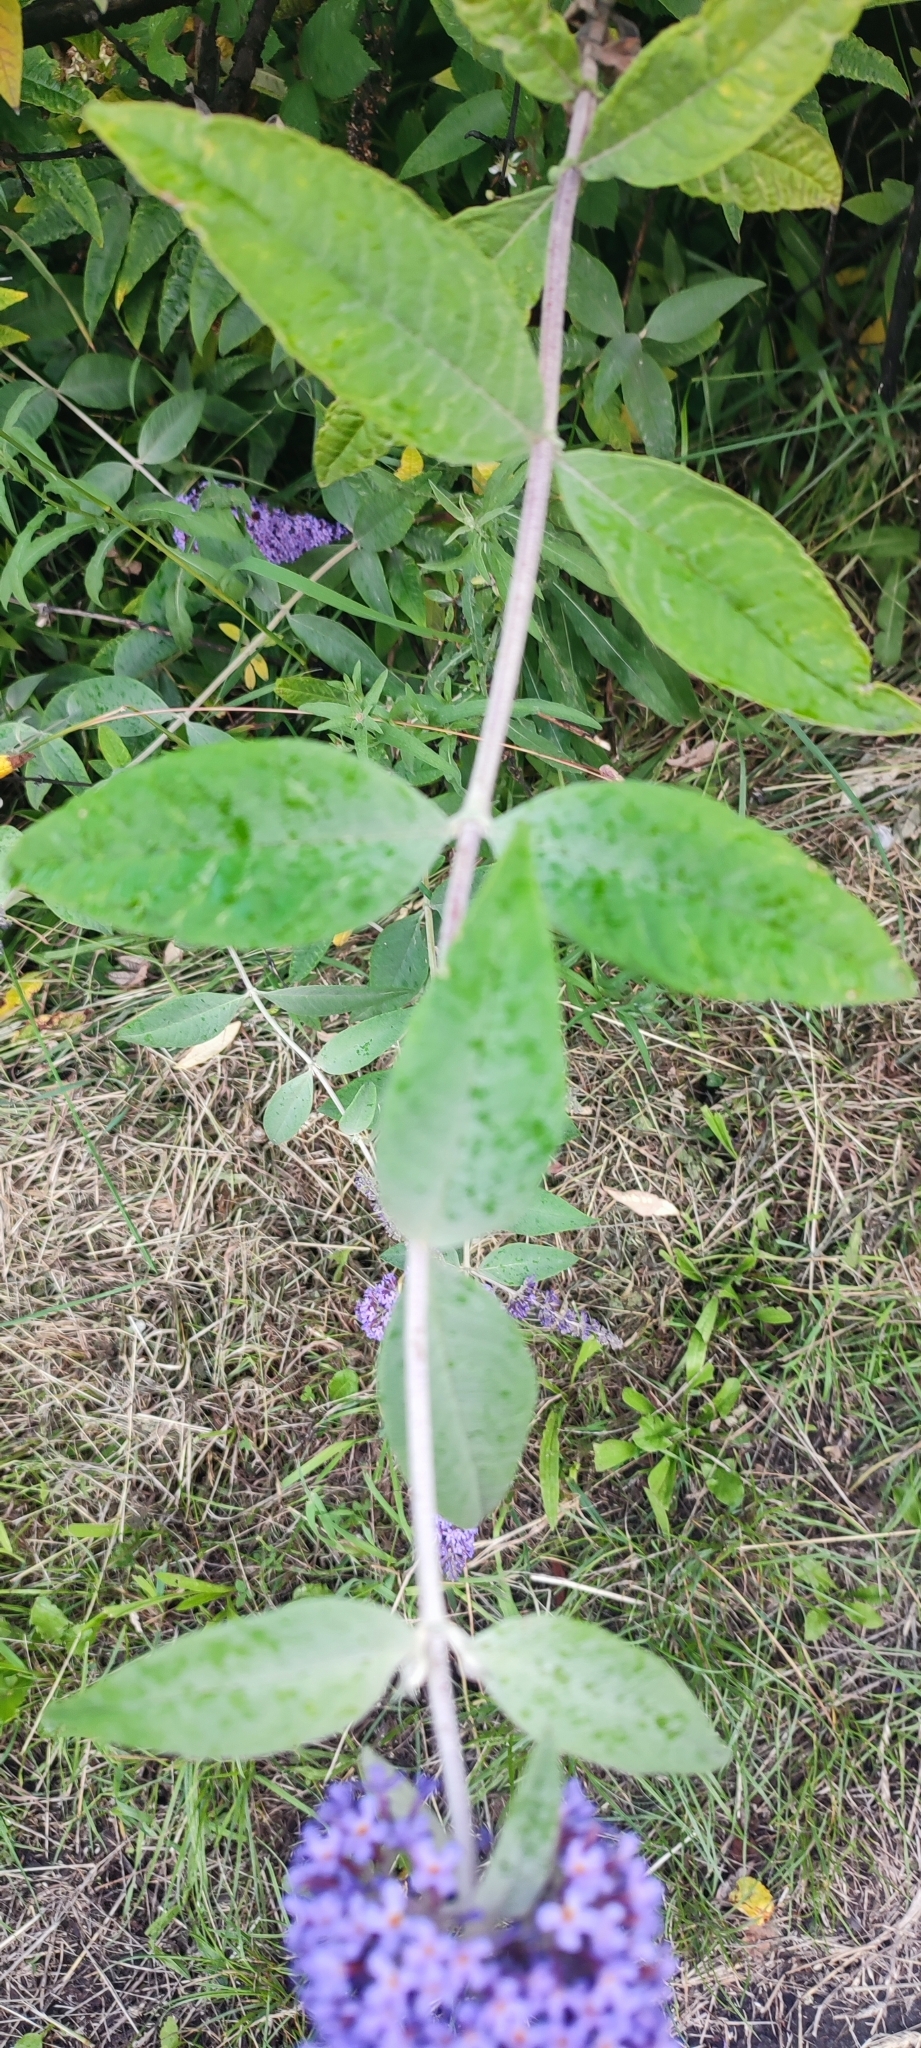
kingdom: Plantae
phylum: Tracheophyta
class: Magnoliopsida
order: Lamiales
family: Scrophulariaceae
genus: Buddleja
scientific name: Buddleja davidii
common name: Butterfly-bush
